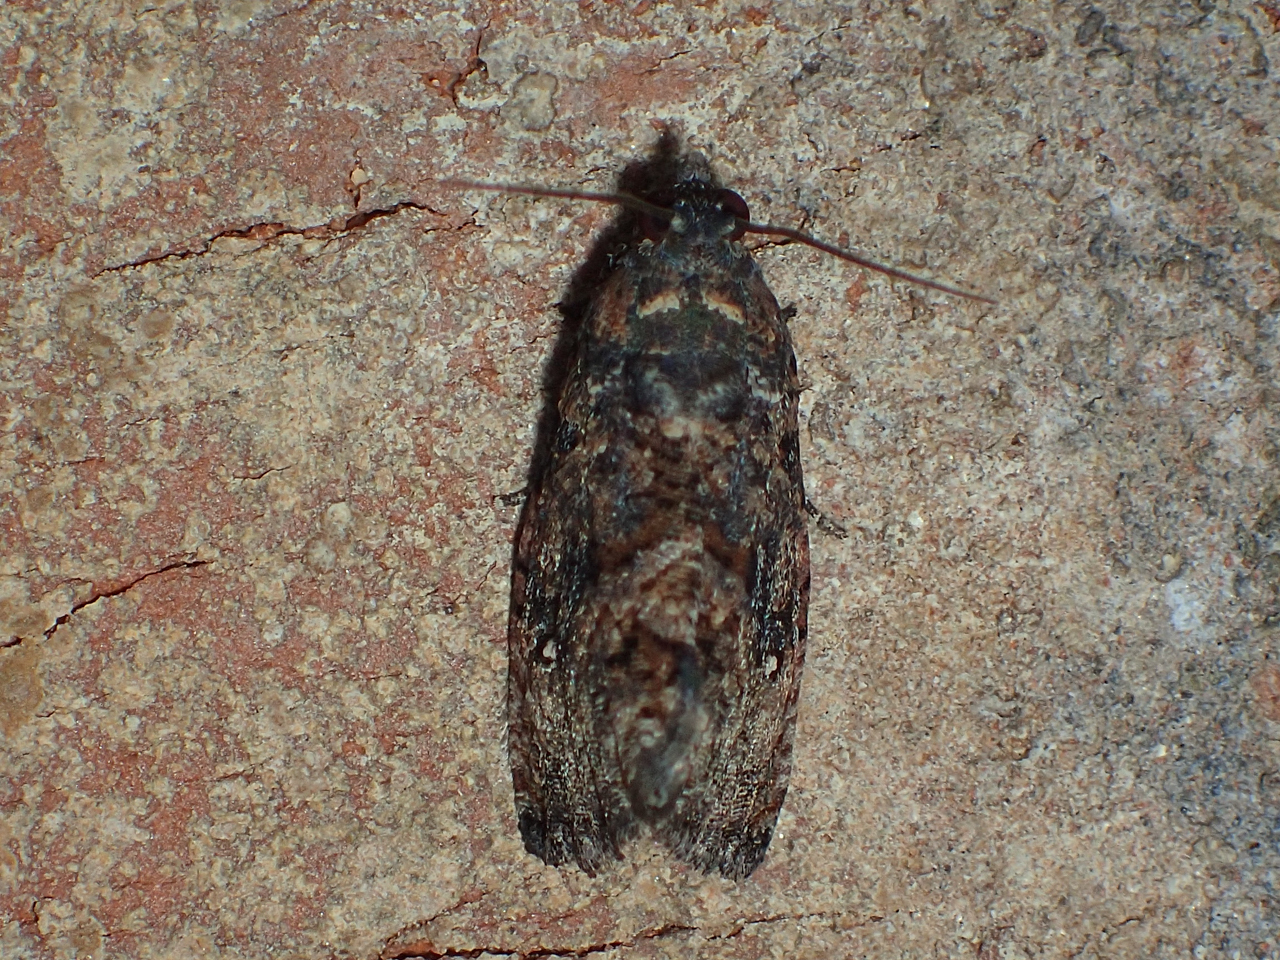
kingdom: Animalia
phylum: Arthropoda
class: Insecta
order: Lepidoptera
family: Tortricidae
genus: Gymnandrosoma
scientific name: Gymnandrosoma punctidiscanum
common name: Dotted ecdytolopha moth
